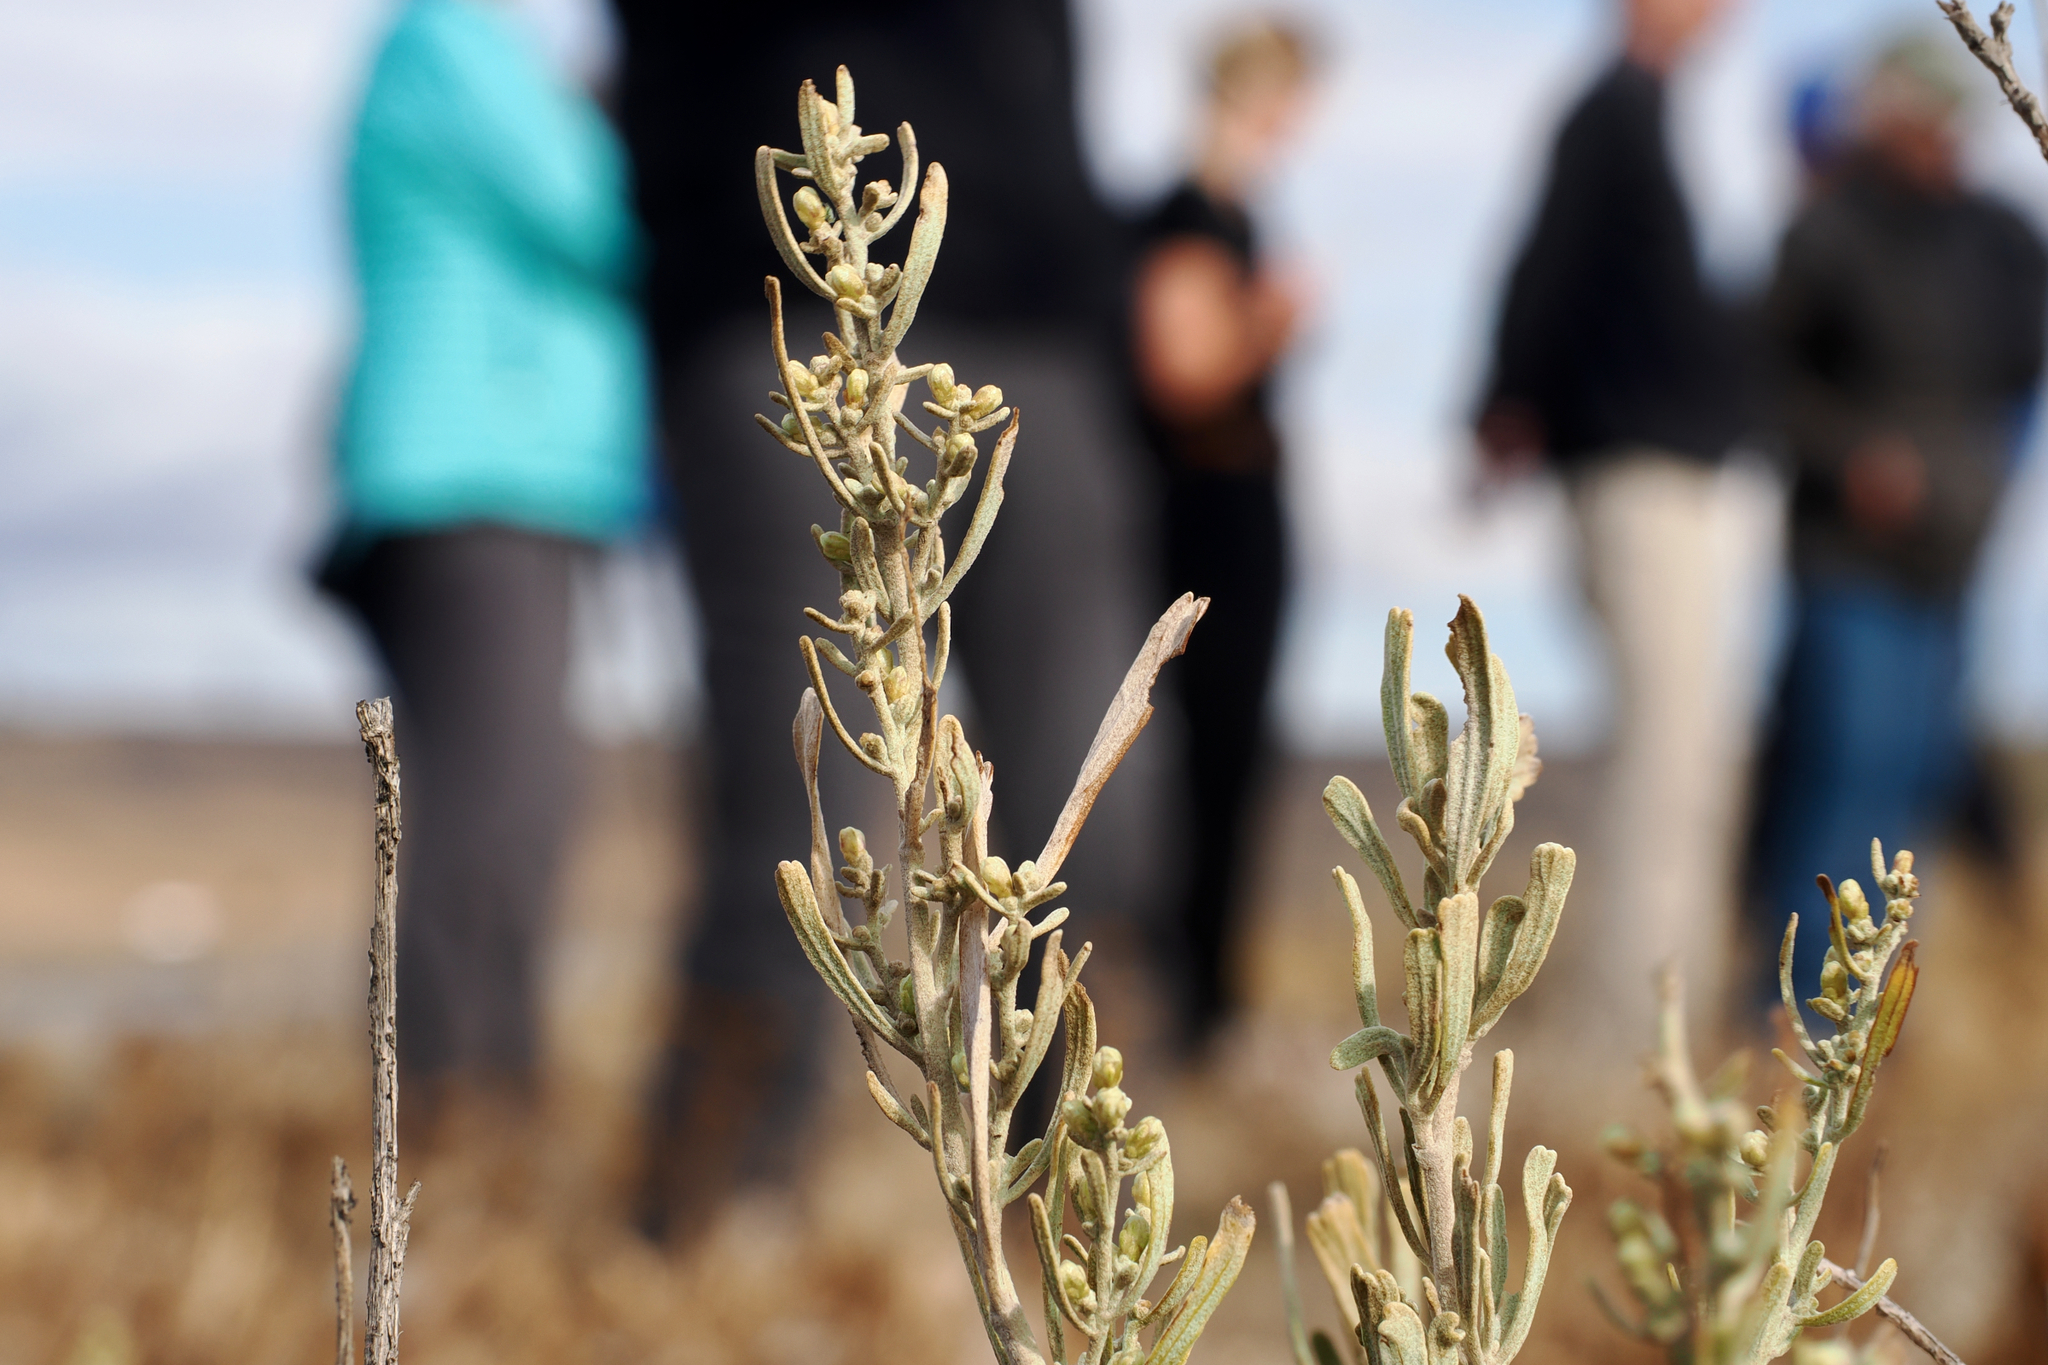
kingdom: Plantae
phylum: Tracheophyta
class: Magnoliopsida
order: Asterales
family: Asteraceae
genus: Artemisia
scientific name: Artemisia tridentata
